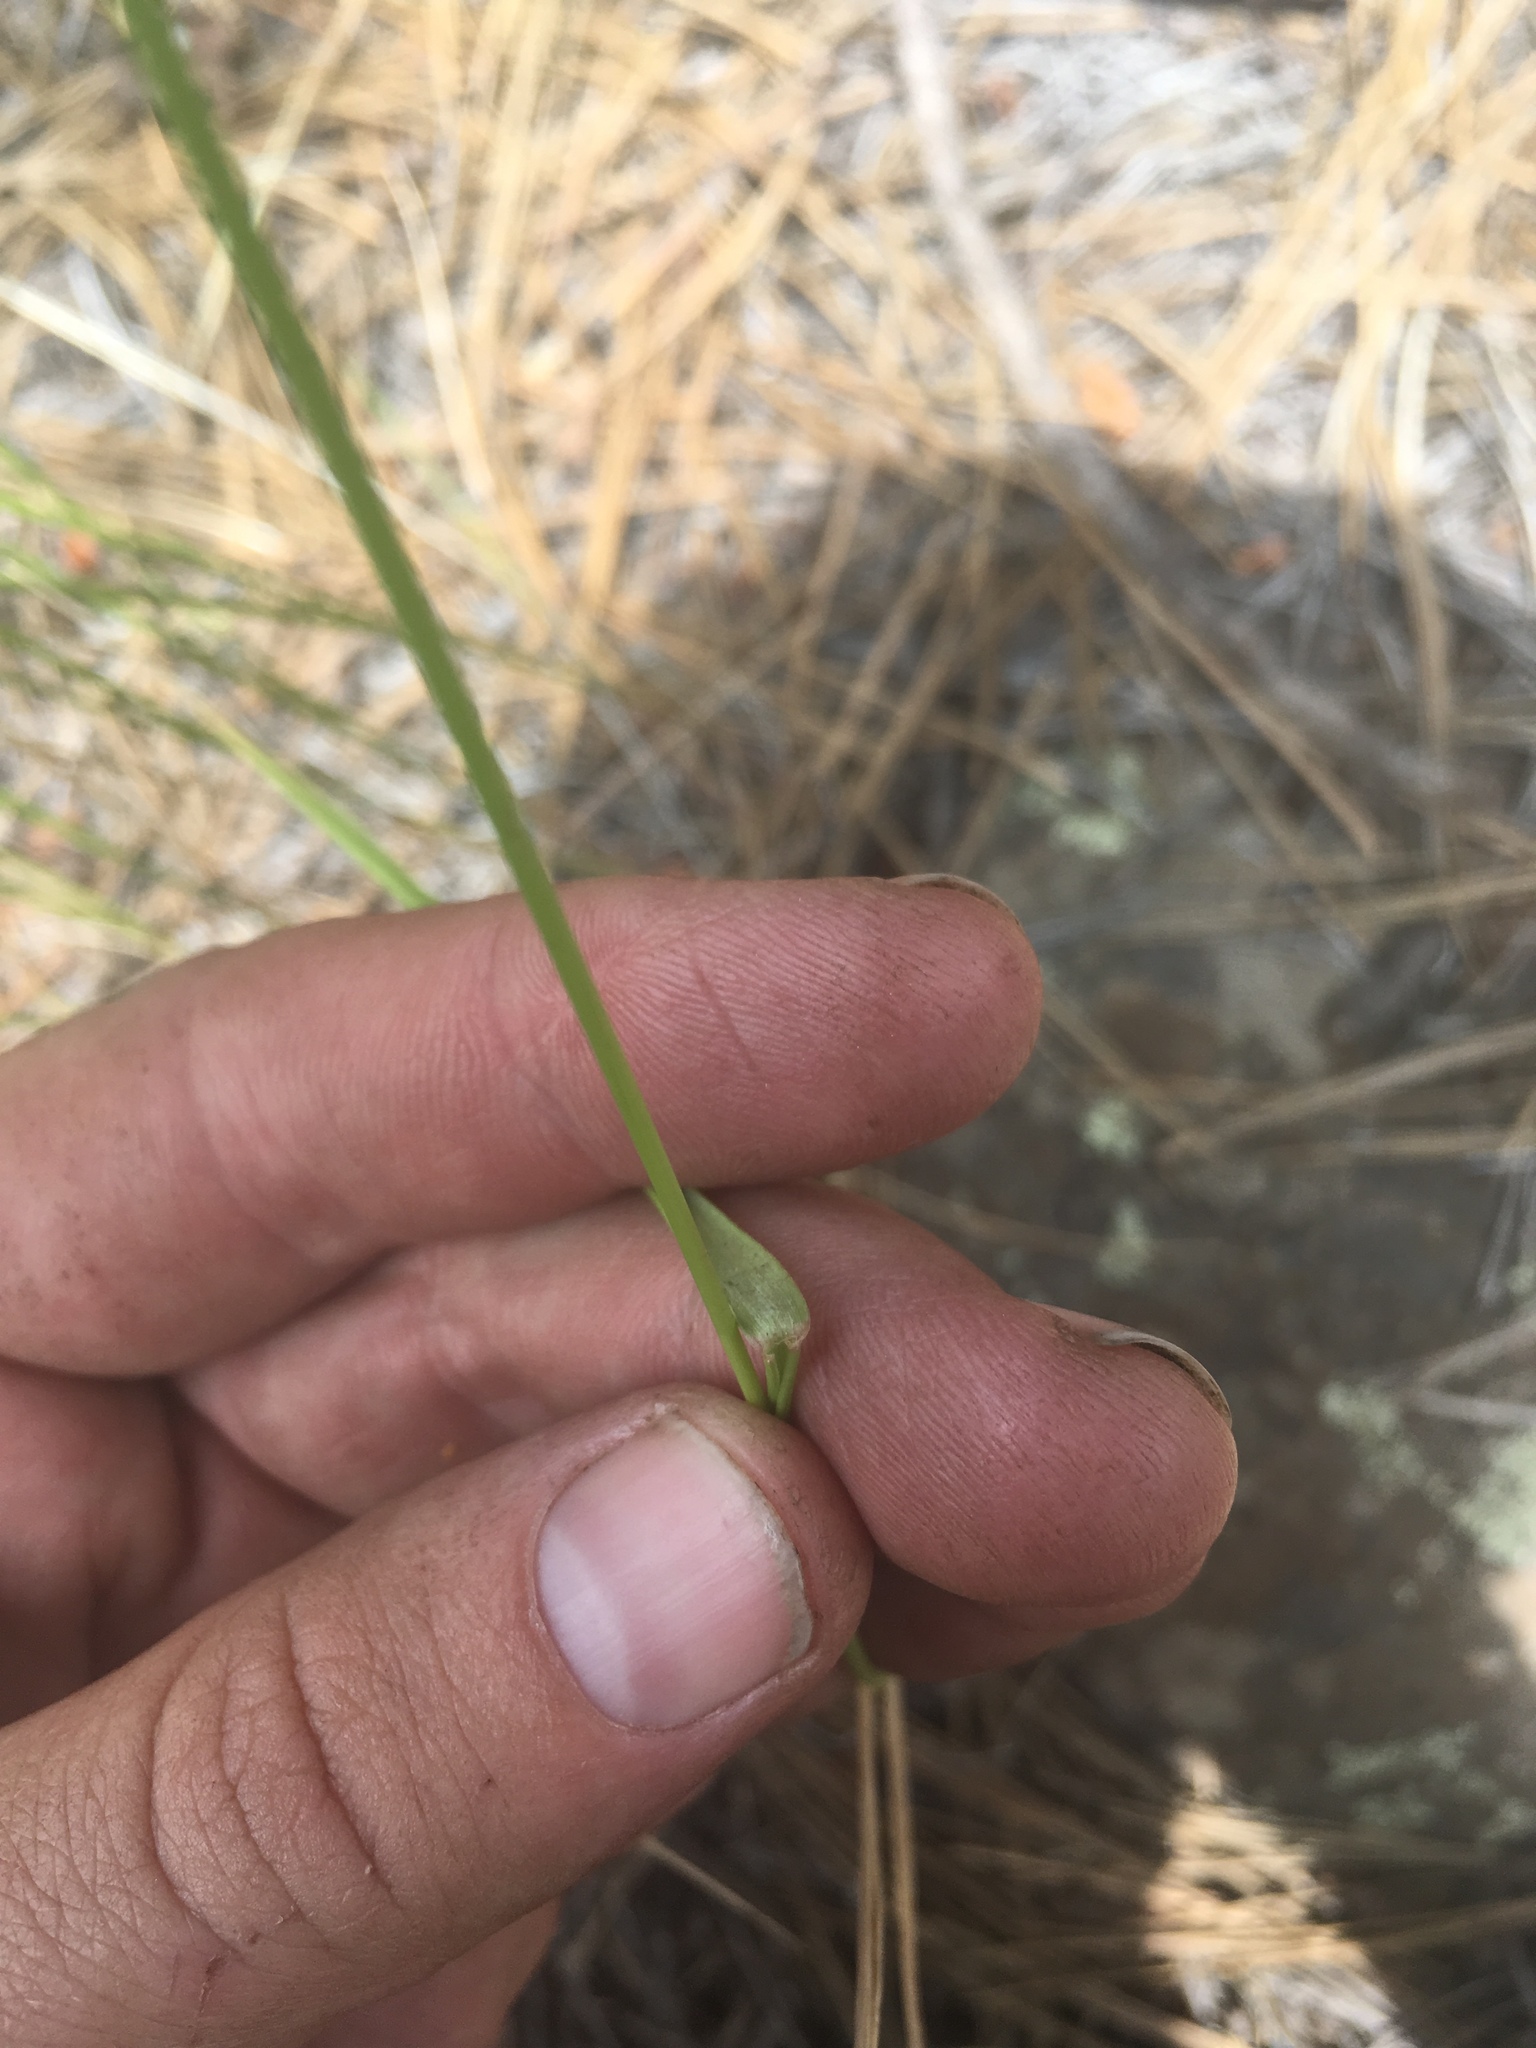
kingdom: Plantae
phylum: Tracheophyta
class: Liliopsida
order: Poales
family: Poaceae
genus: Agropyron
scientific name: Agropyron cristatum
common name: Crested wheatgrass
